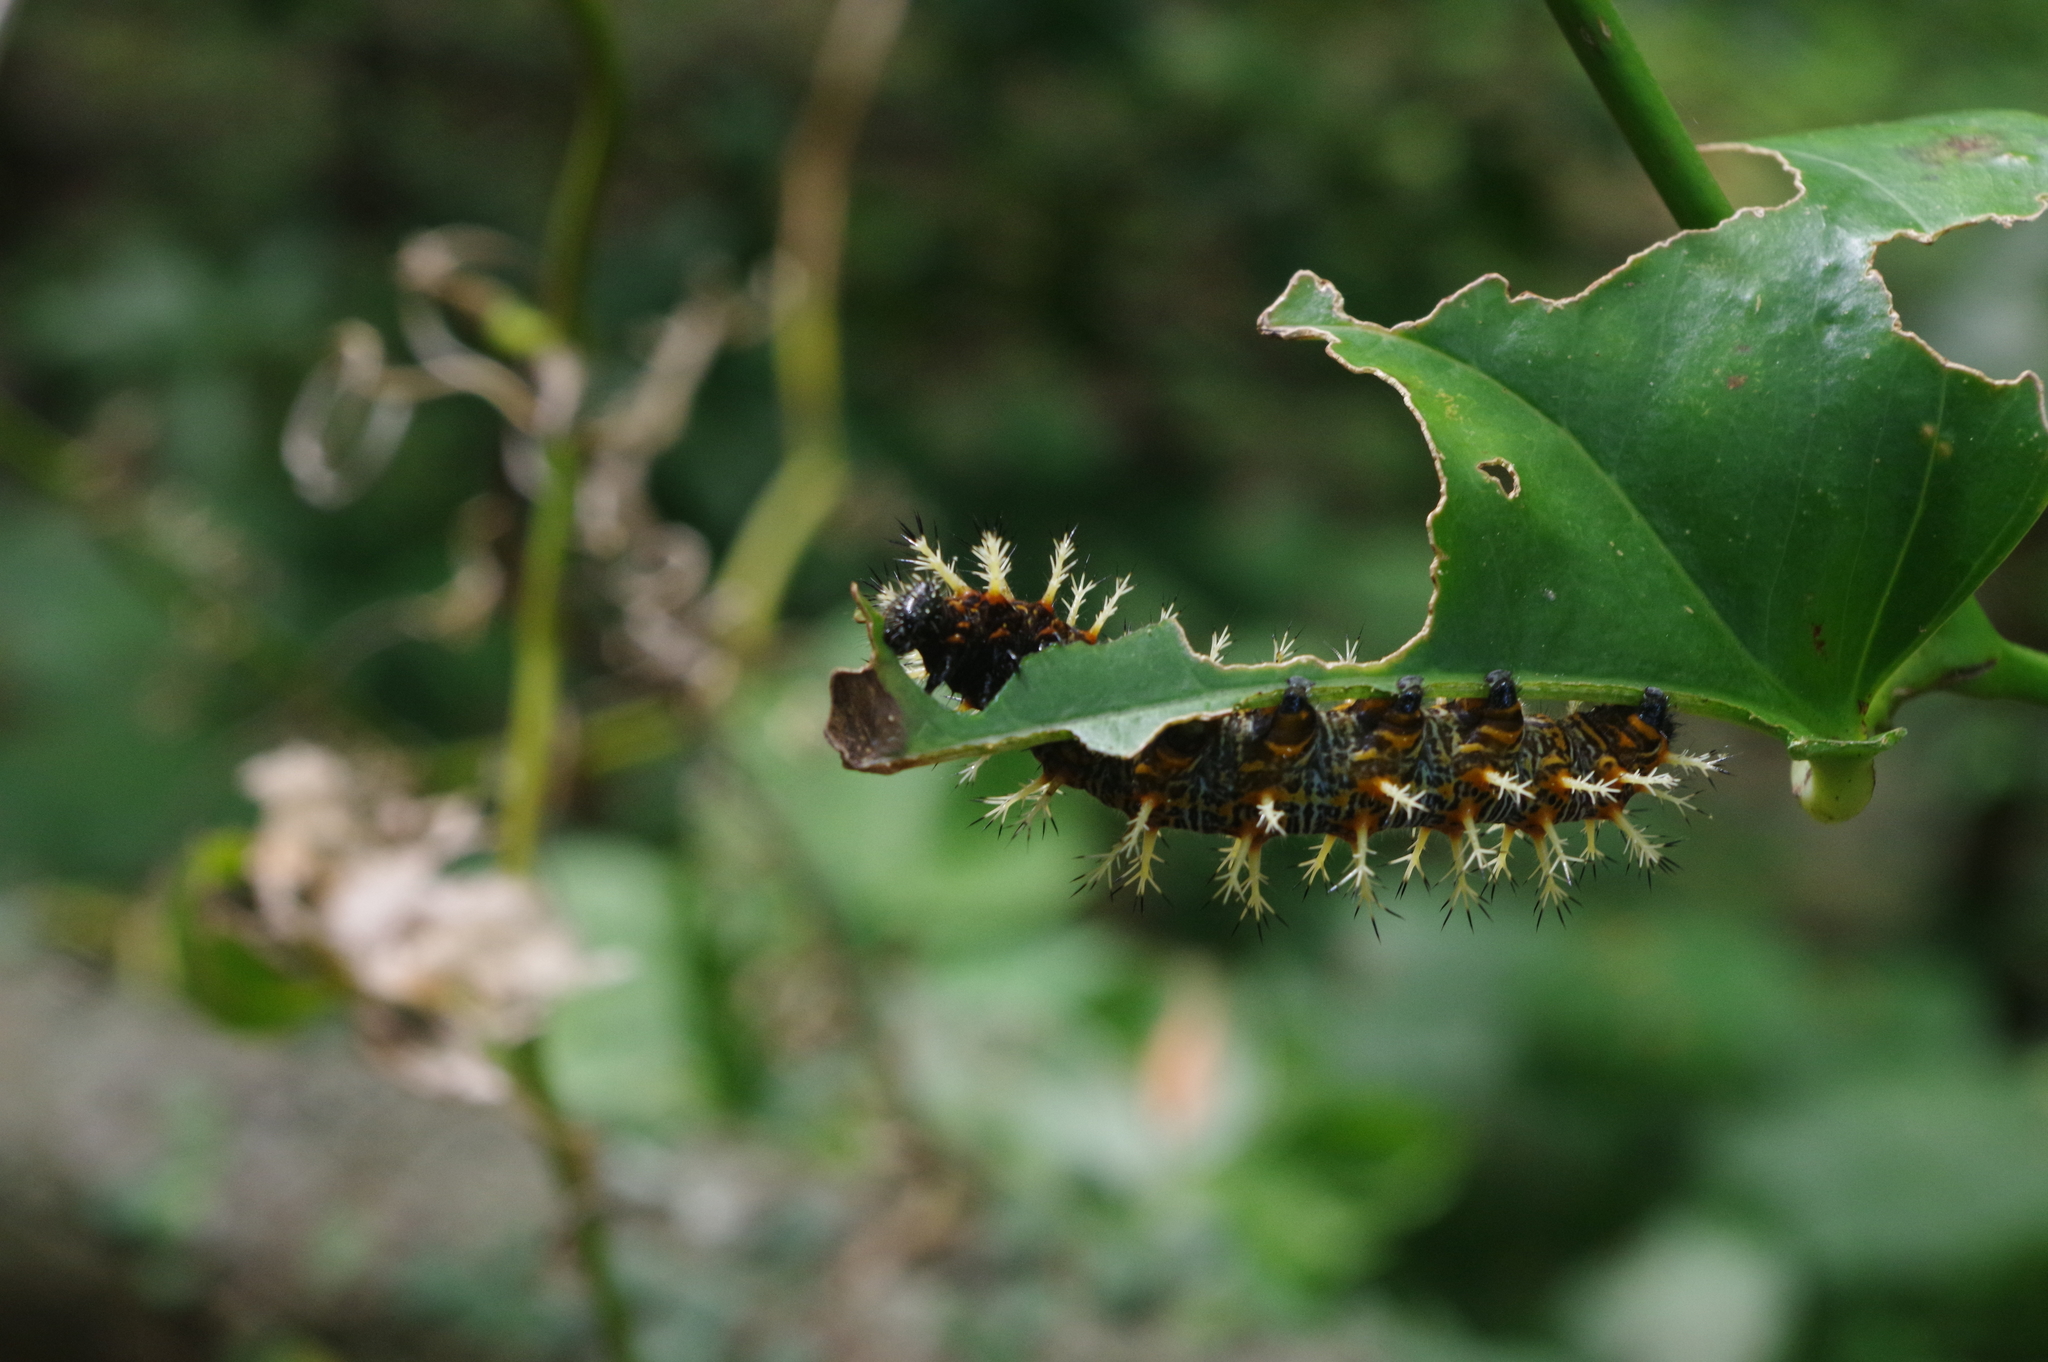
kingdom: Animalia
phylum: Arthropoda
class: Insecta
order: Lepidoptera
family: Nymphalidae
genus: Vanessa
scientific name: Vanessa Kaniska canace
